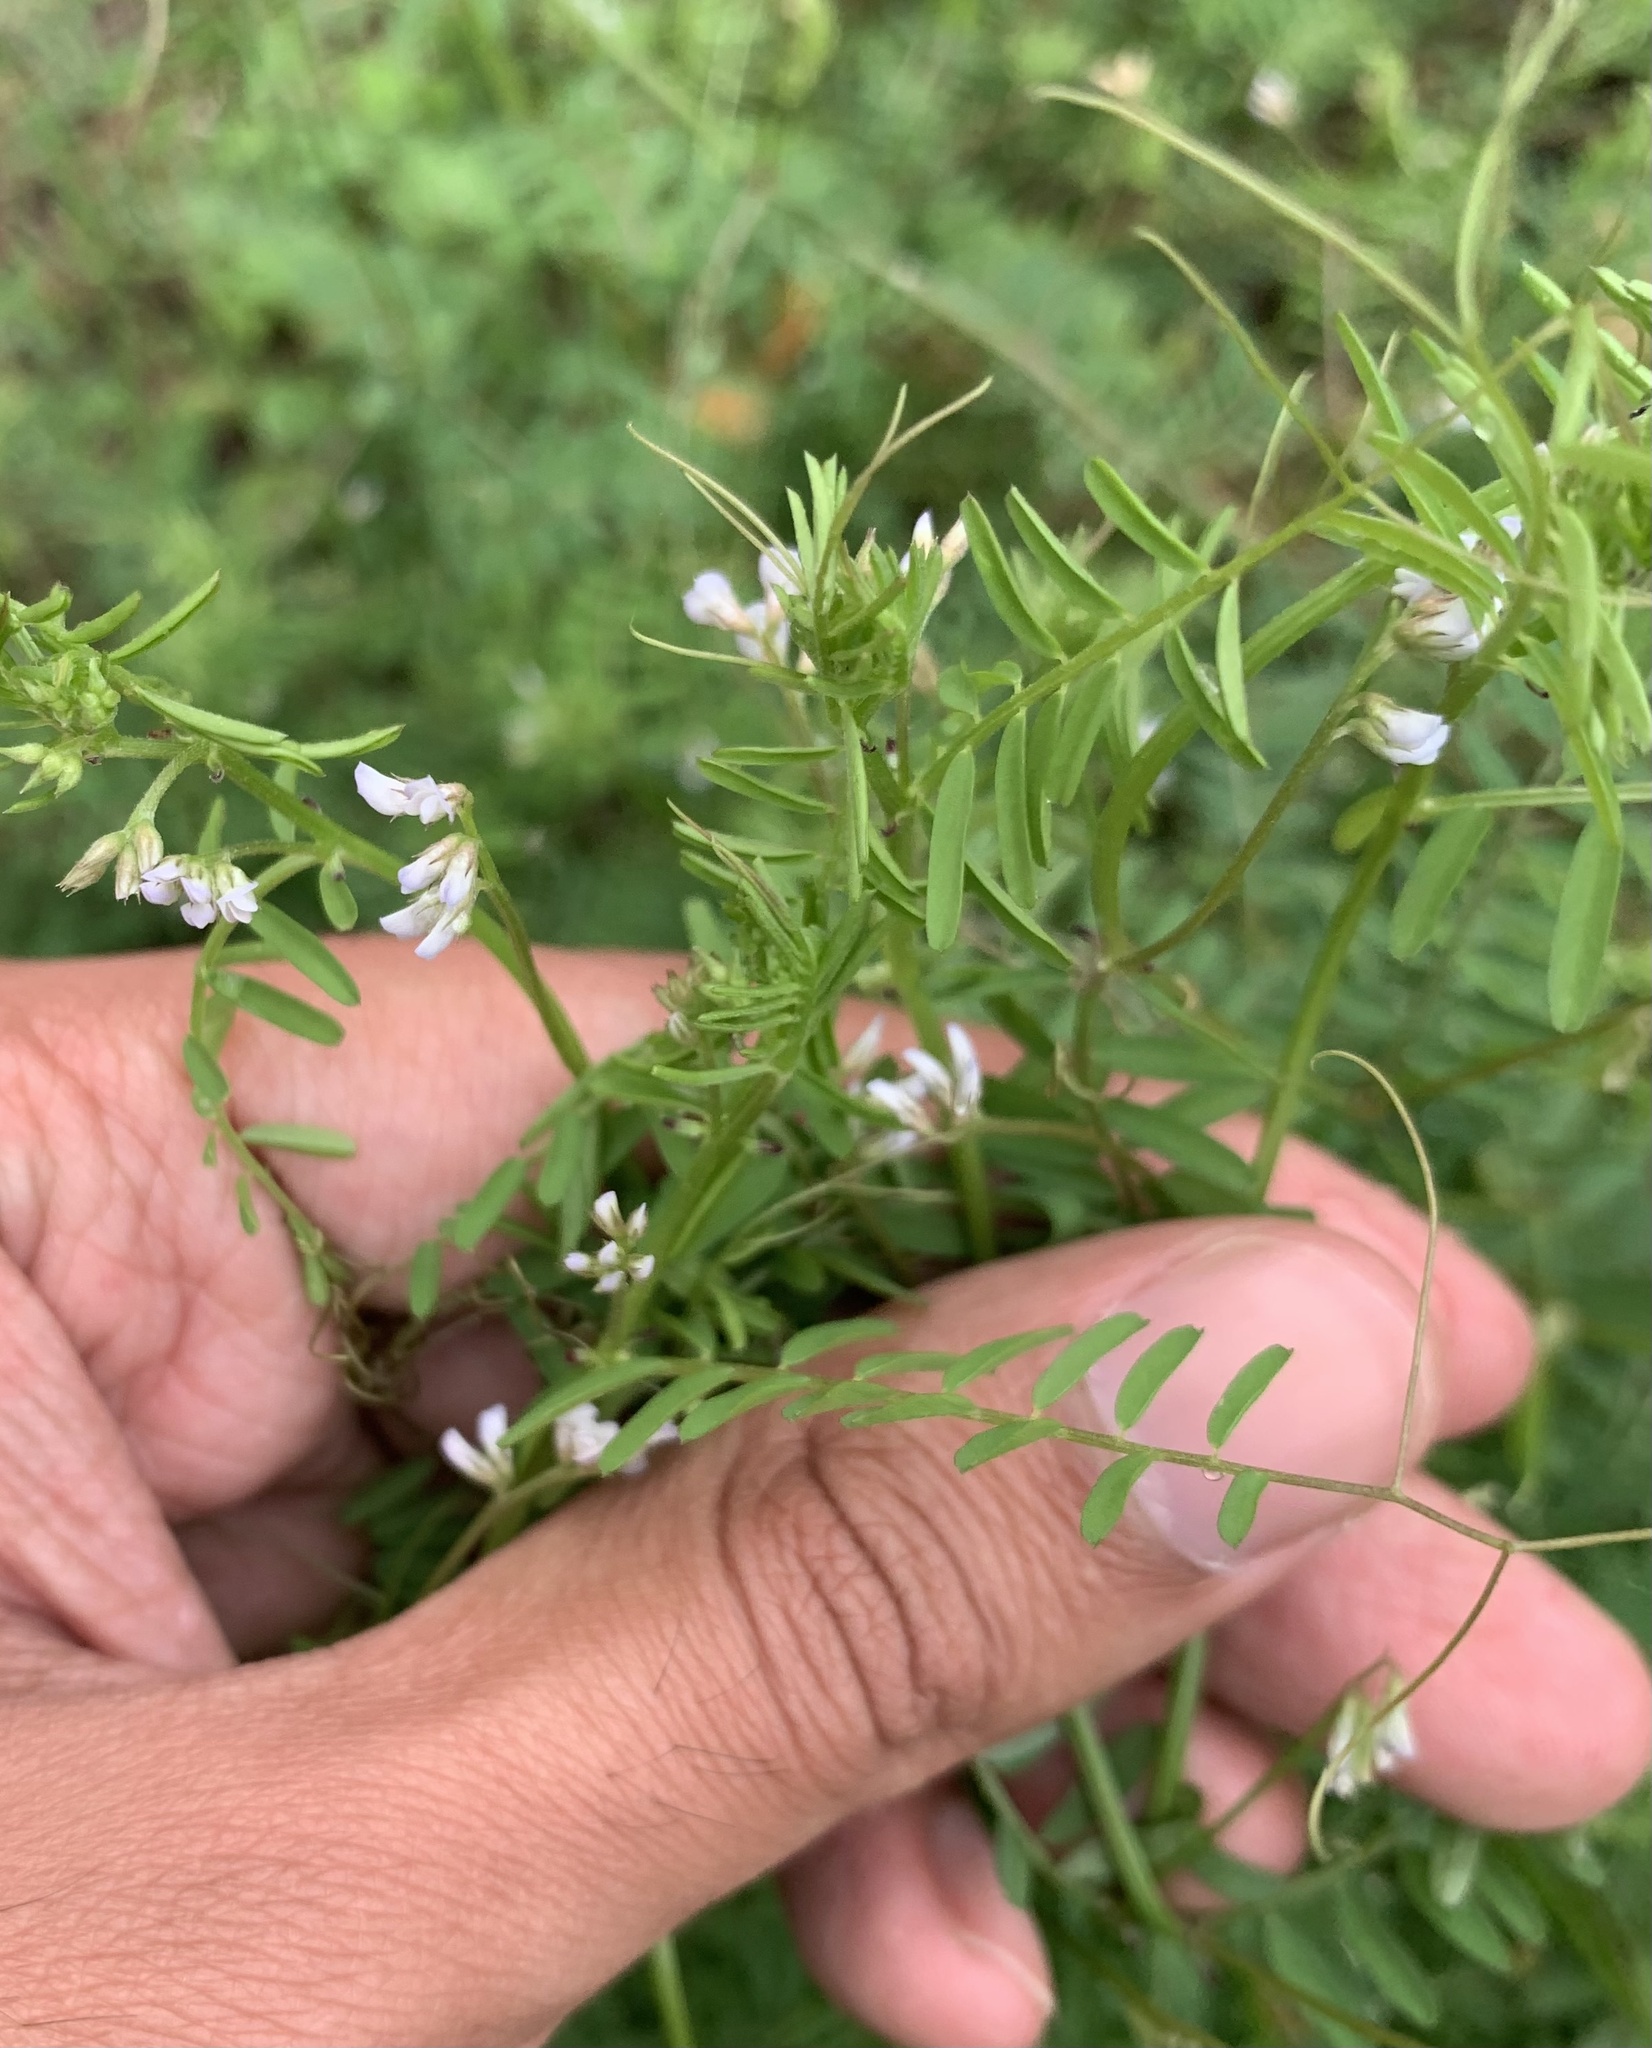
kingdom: Plantae
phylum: Tracheophyta
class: Magnoliopsida
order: Fabales
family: Fabaceae
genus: Vicia
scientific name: Vicia hirsuta
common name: Tiny vetch
